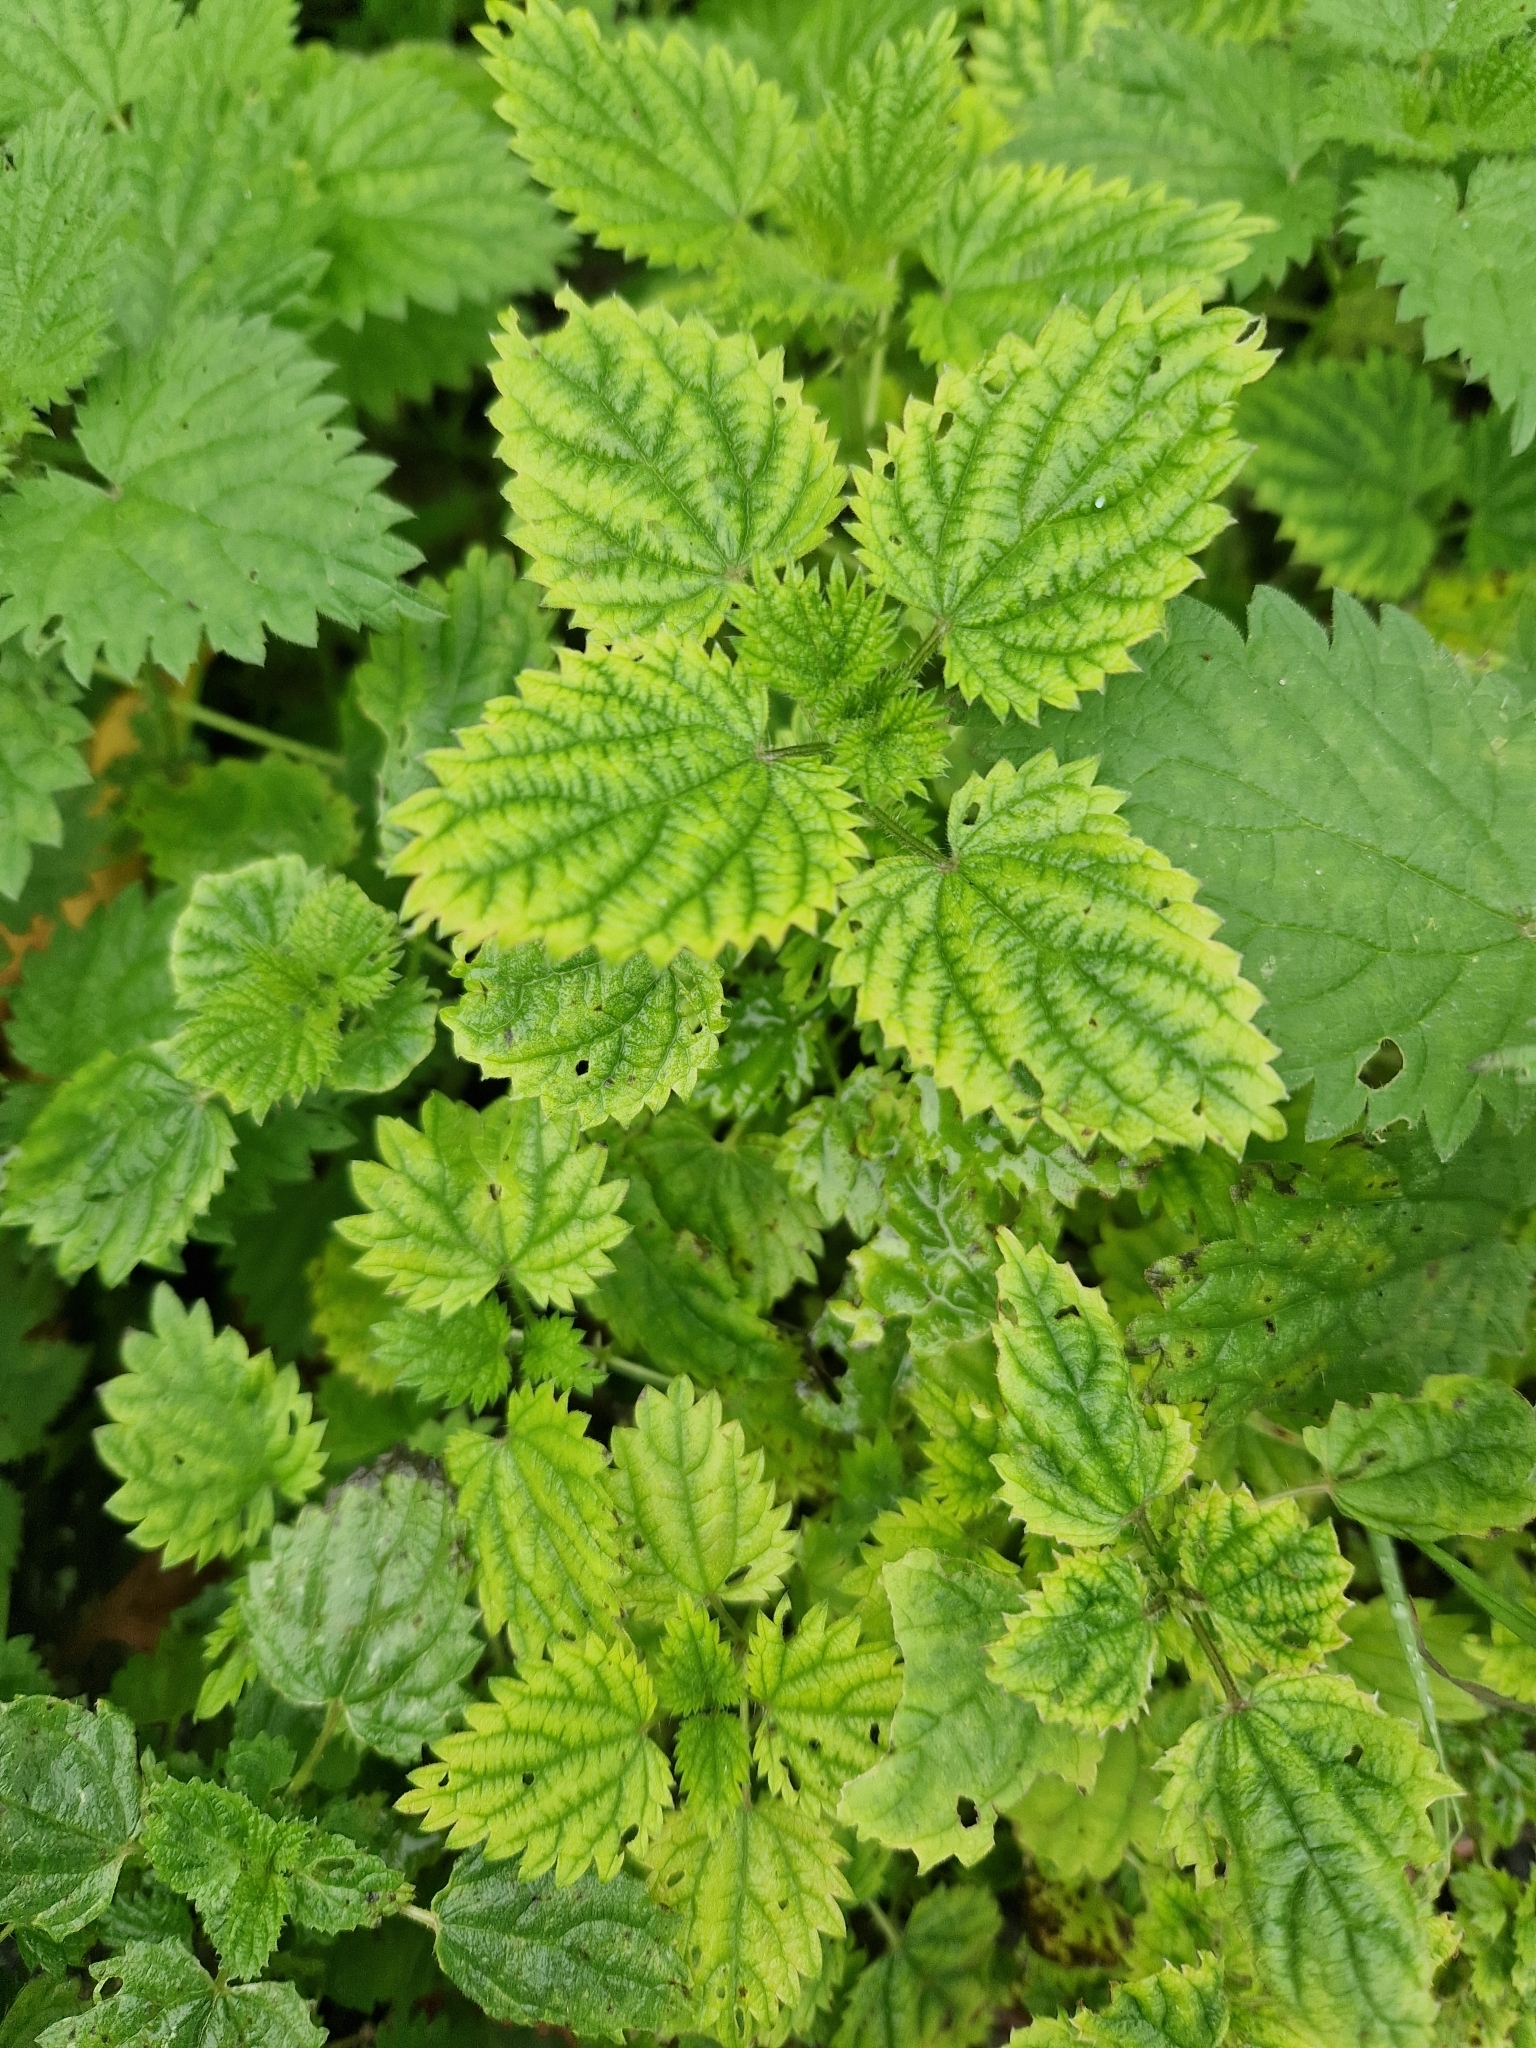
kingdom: Plantae
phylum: Tracheophyta
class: Magnoliopsida
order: Rosales
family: Urticaceae
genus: Urtica
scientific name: Urtica dioica
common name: Common nettle
